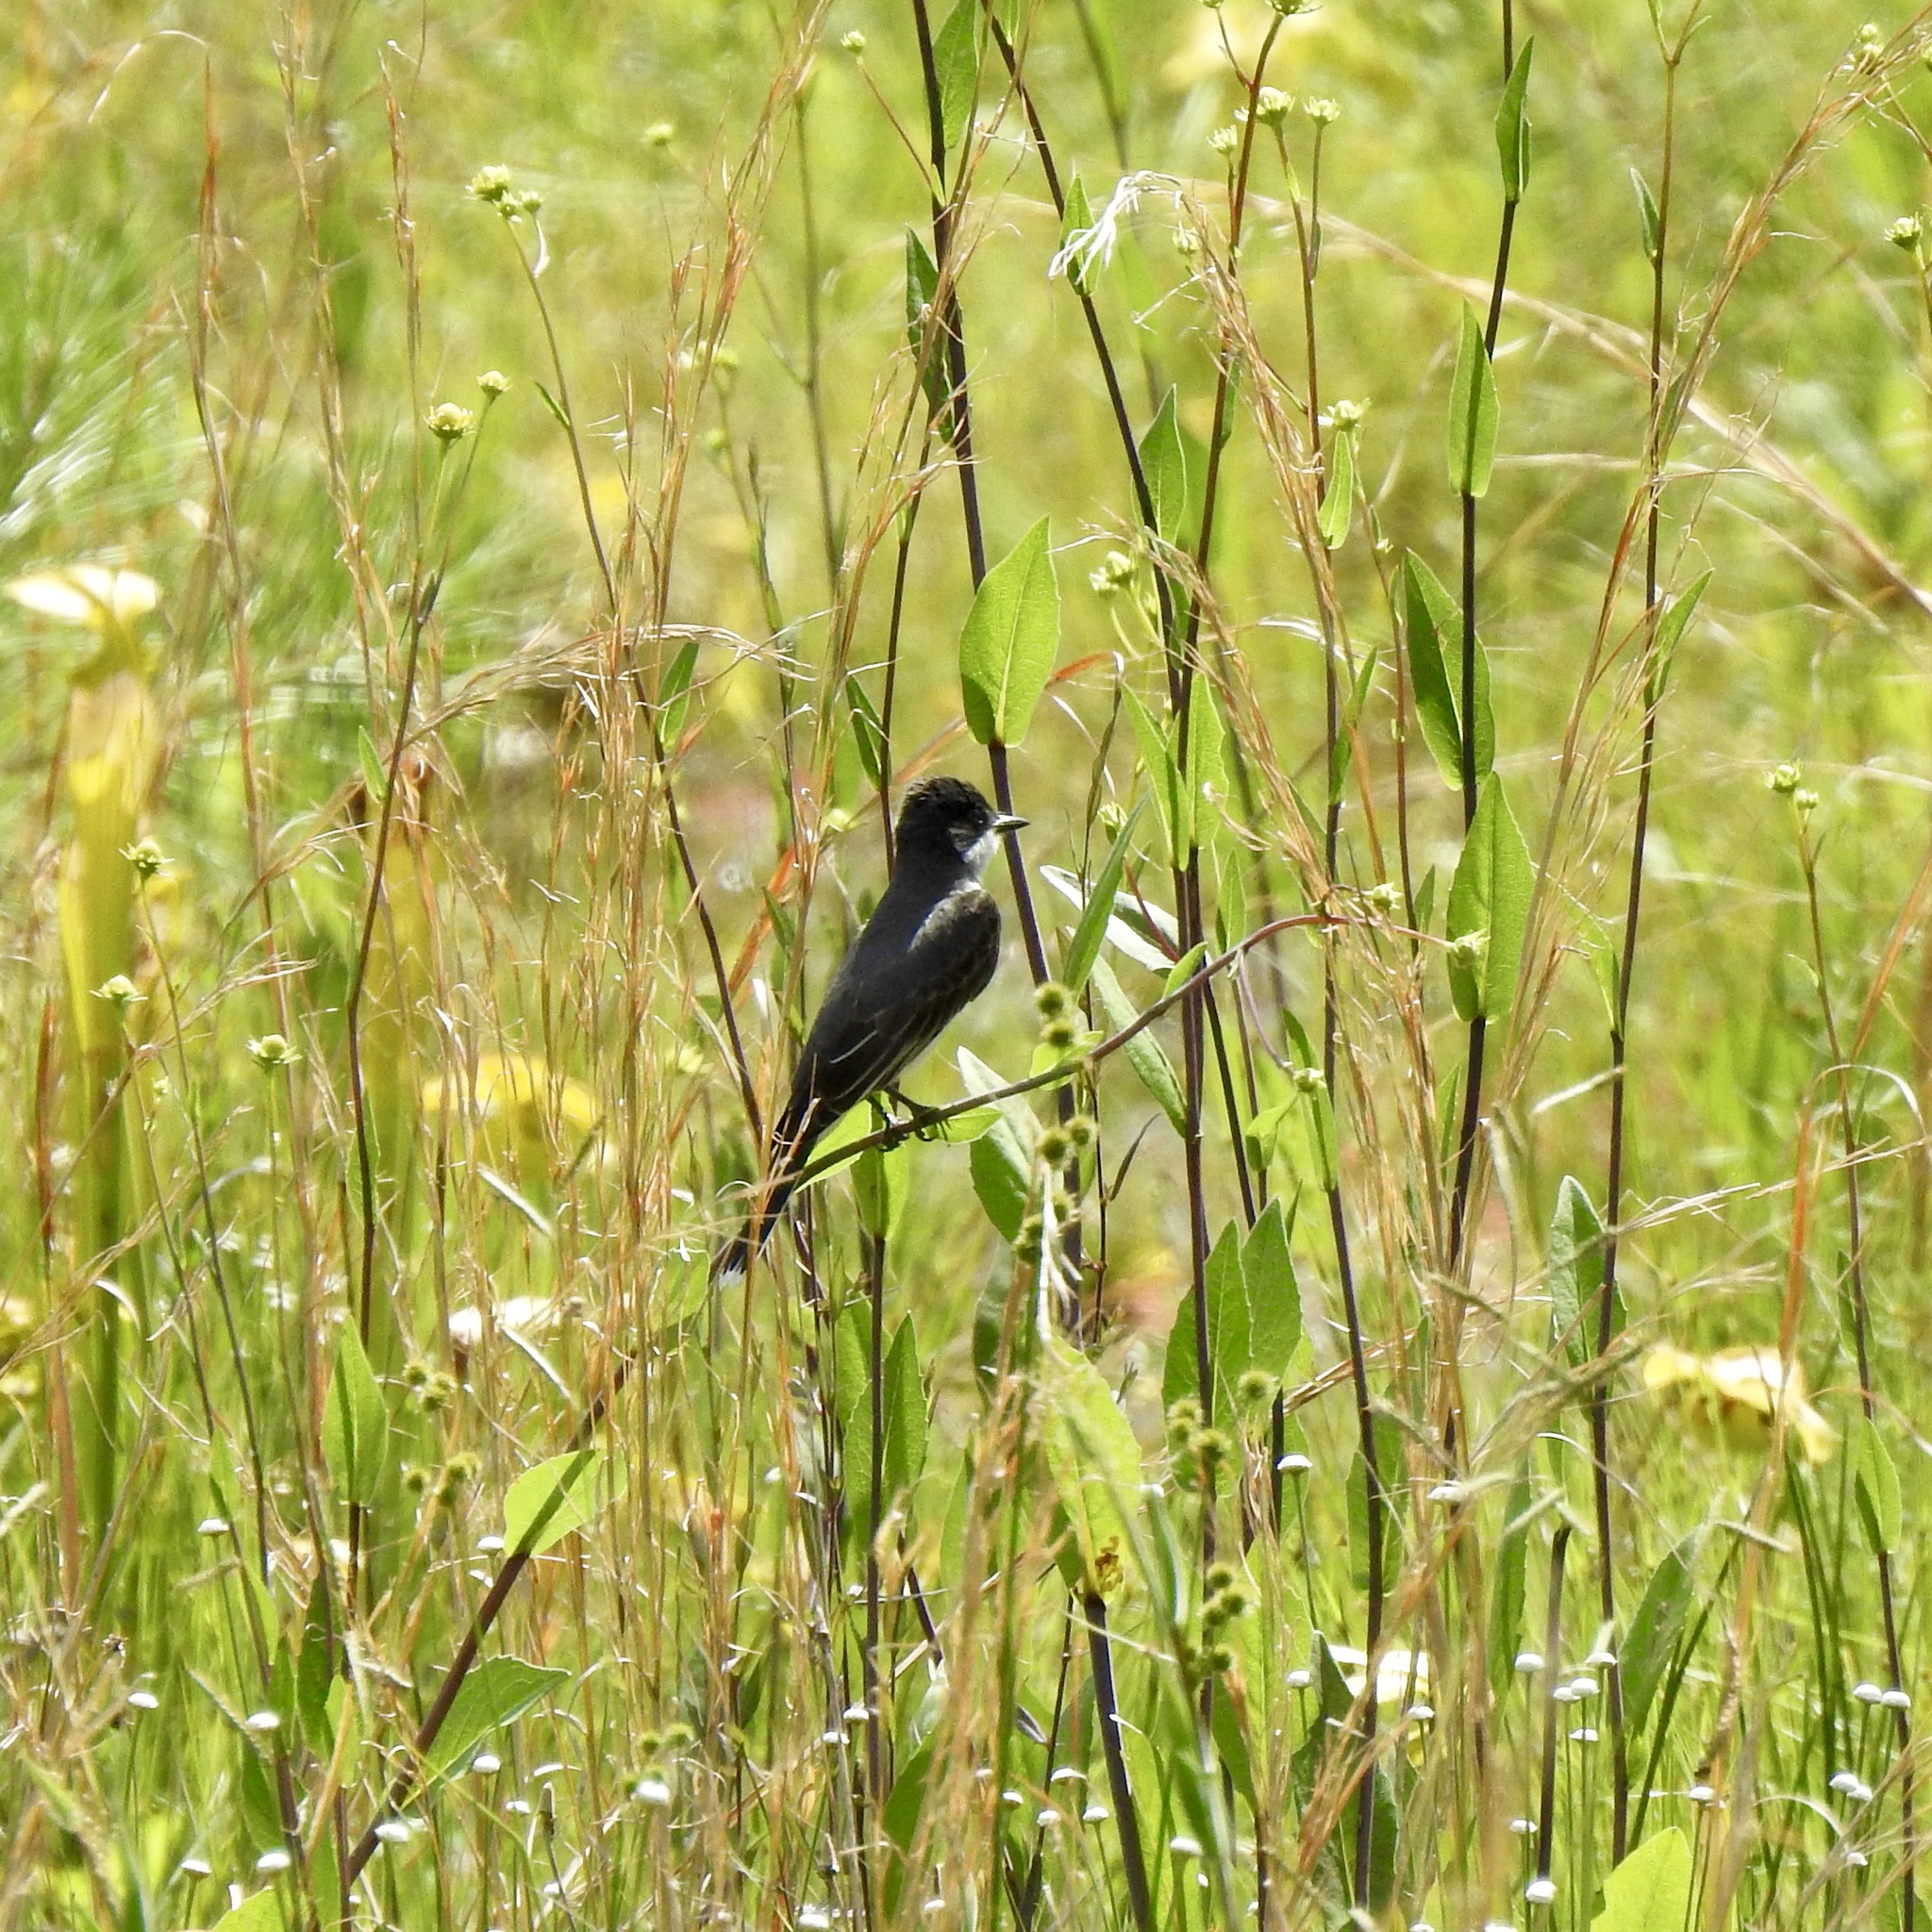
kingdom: Animalia
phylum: Chordata
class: Aves
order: Passeriformes
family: Tyrannidae
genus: Tyrannus
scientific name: Tyrannus tyrannus
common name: Eastern kingbird
